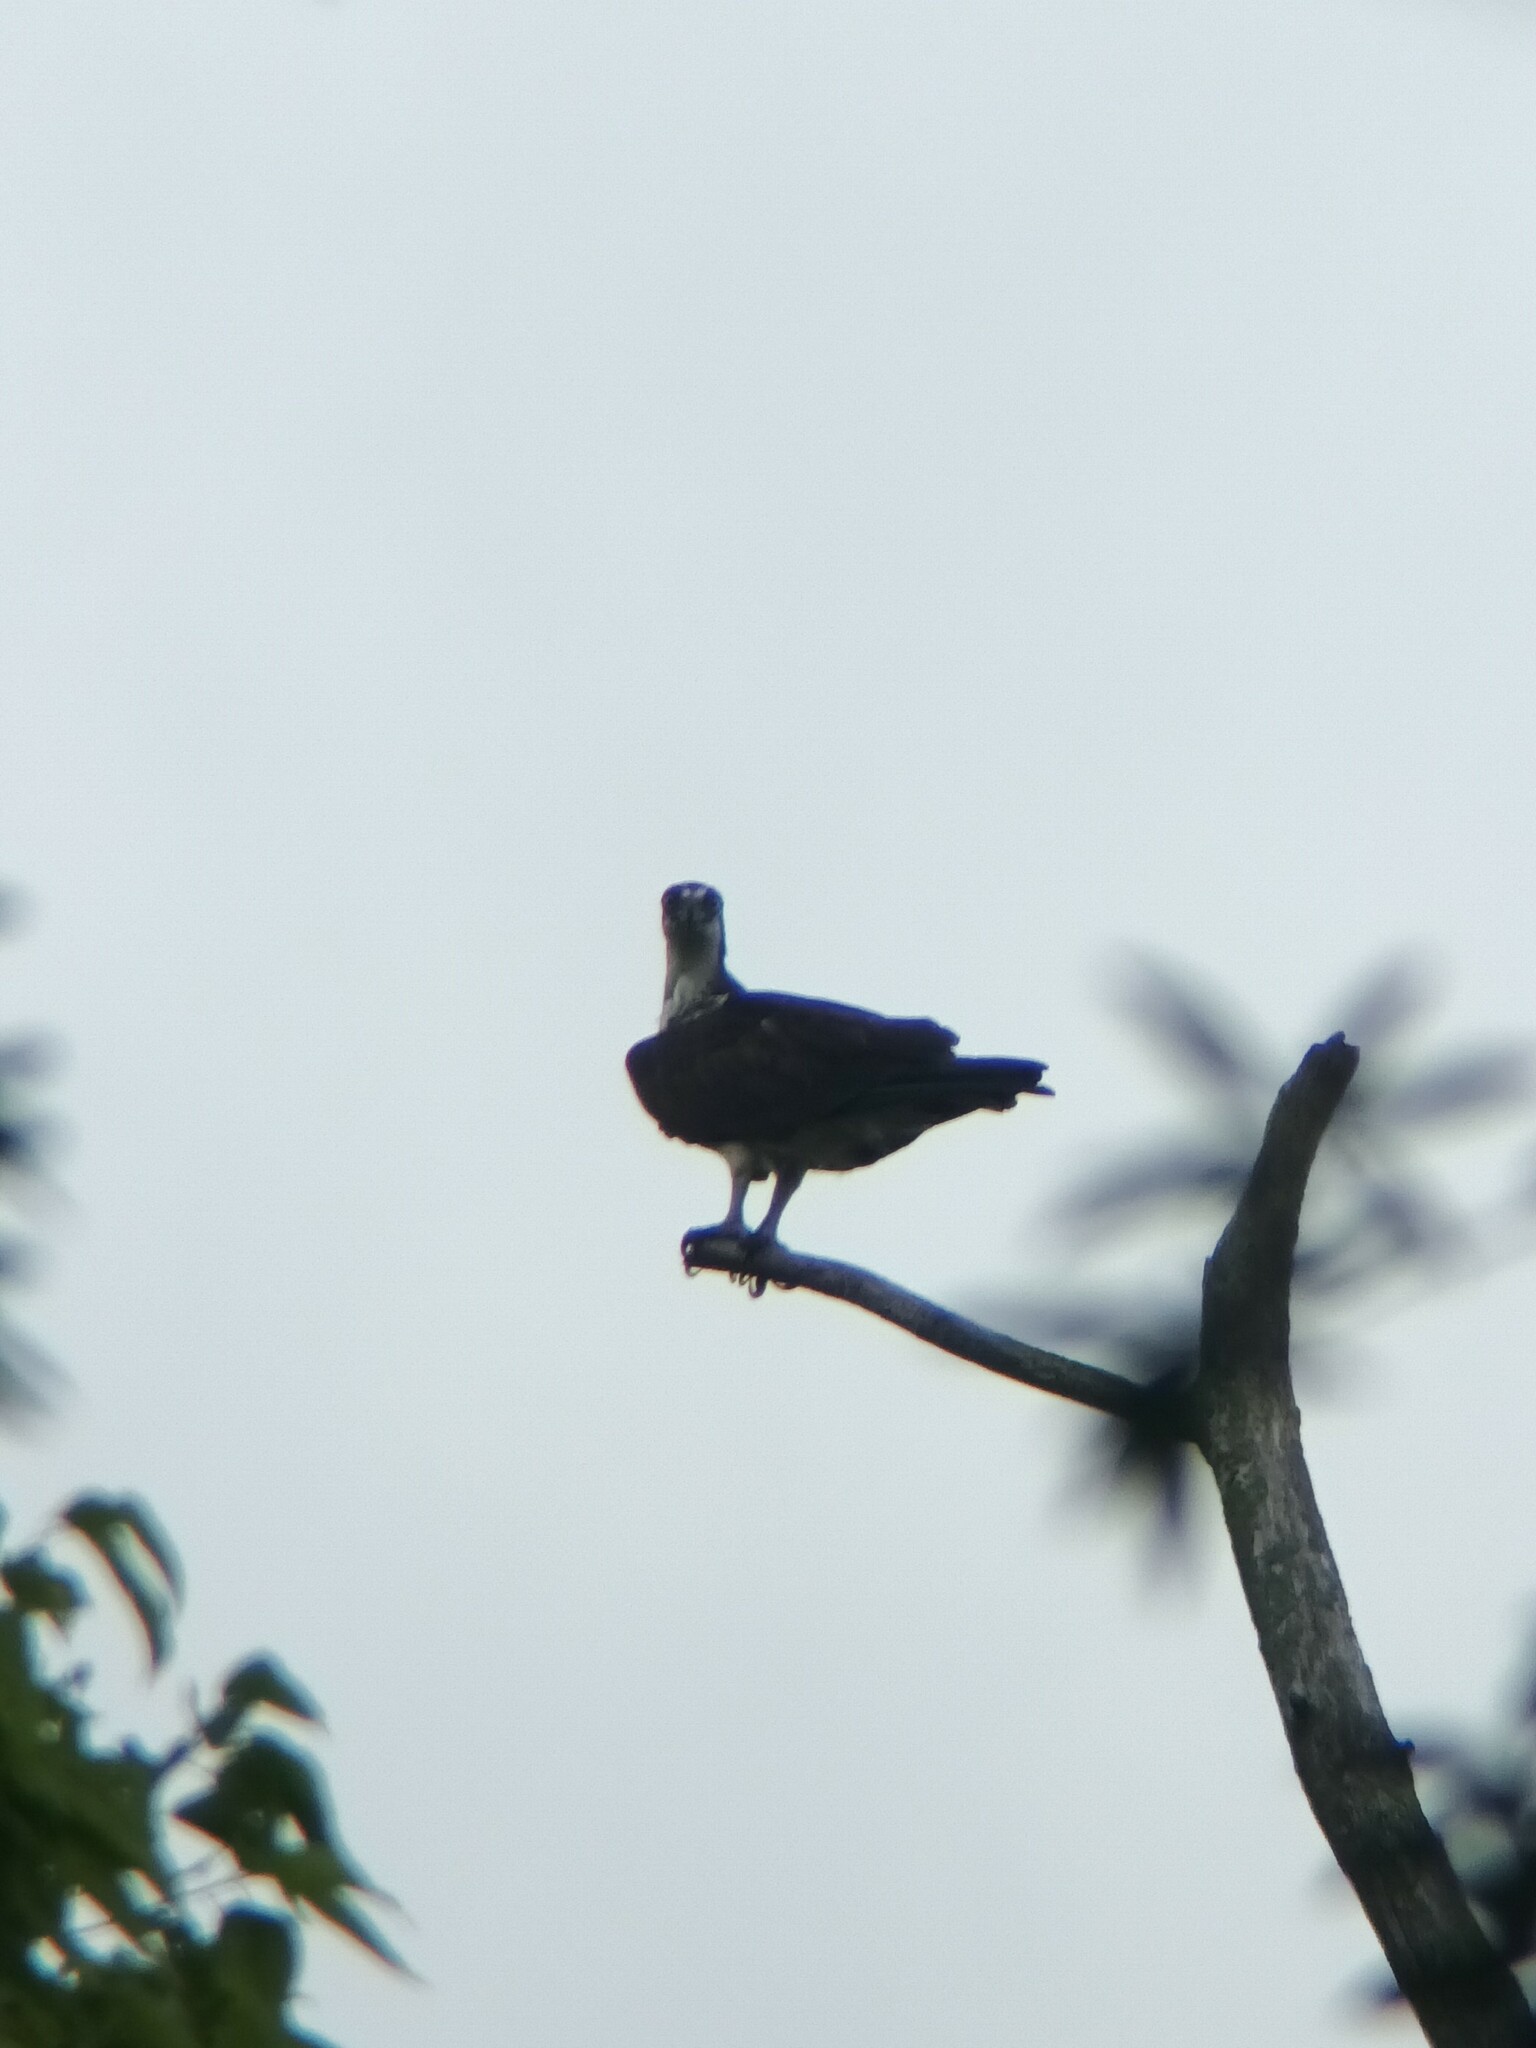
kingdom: Animalia
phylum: Chordata
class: Aves
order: Accipitriformes
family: Pandionidae
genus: Pandion
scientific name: Pandion haliaetus
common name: Osprey
